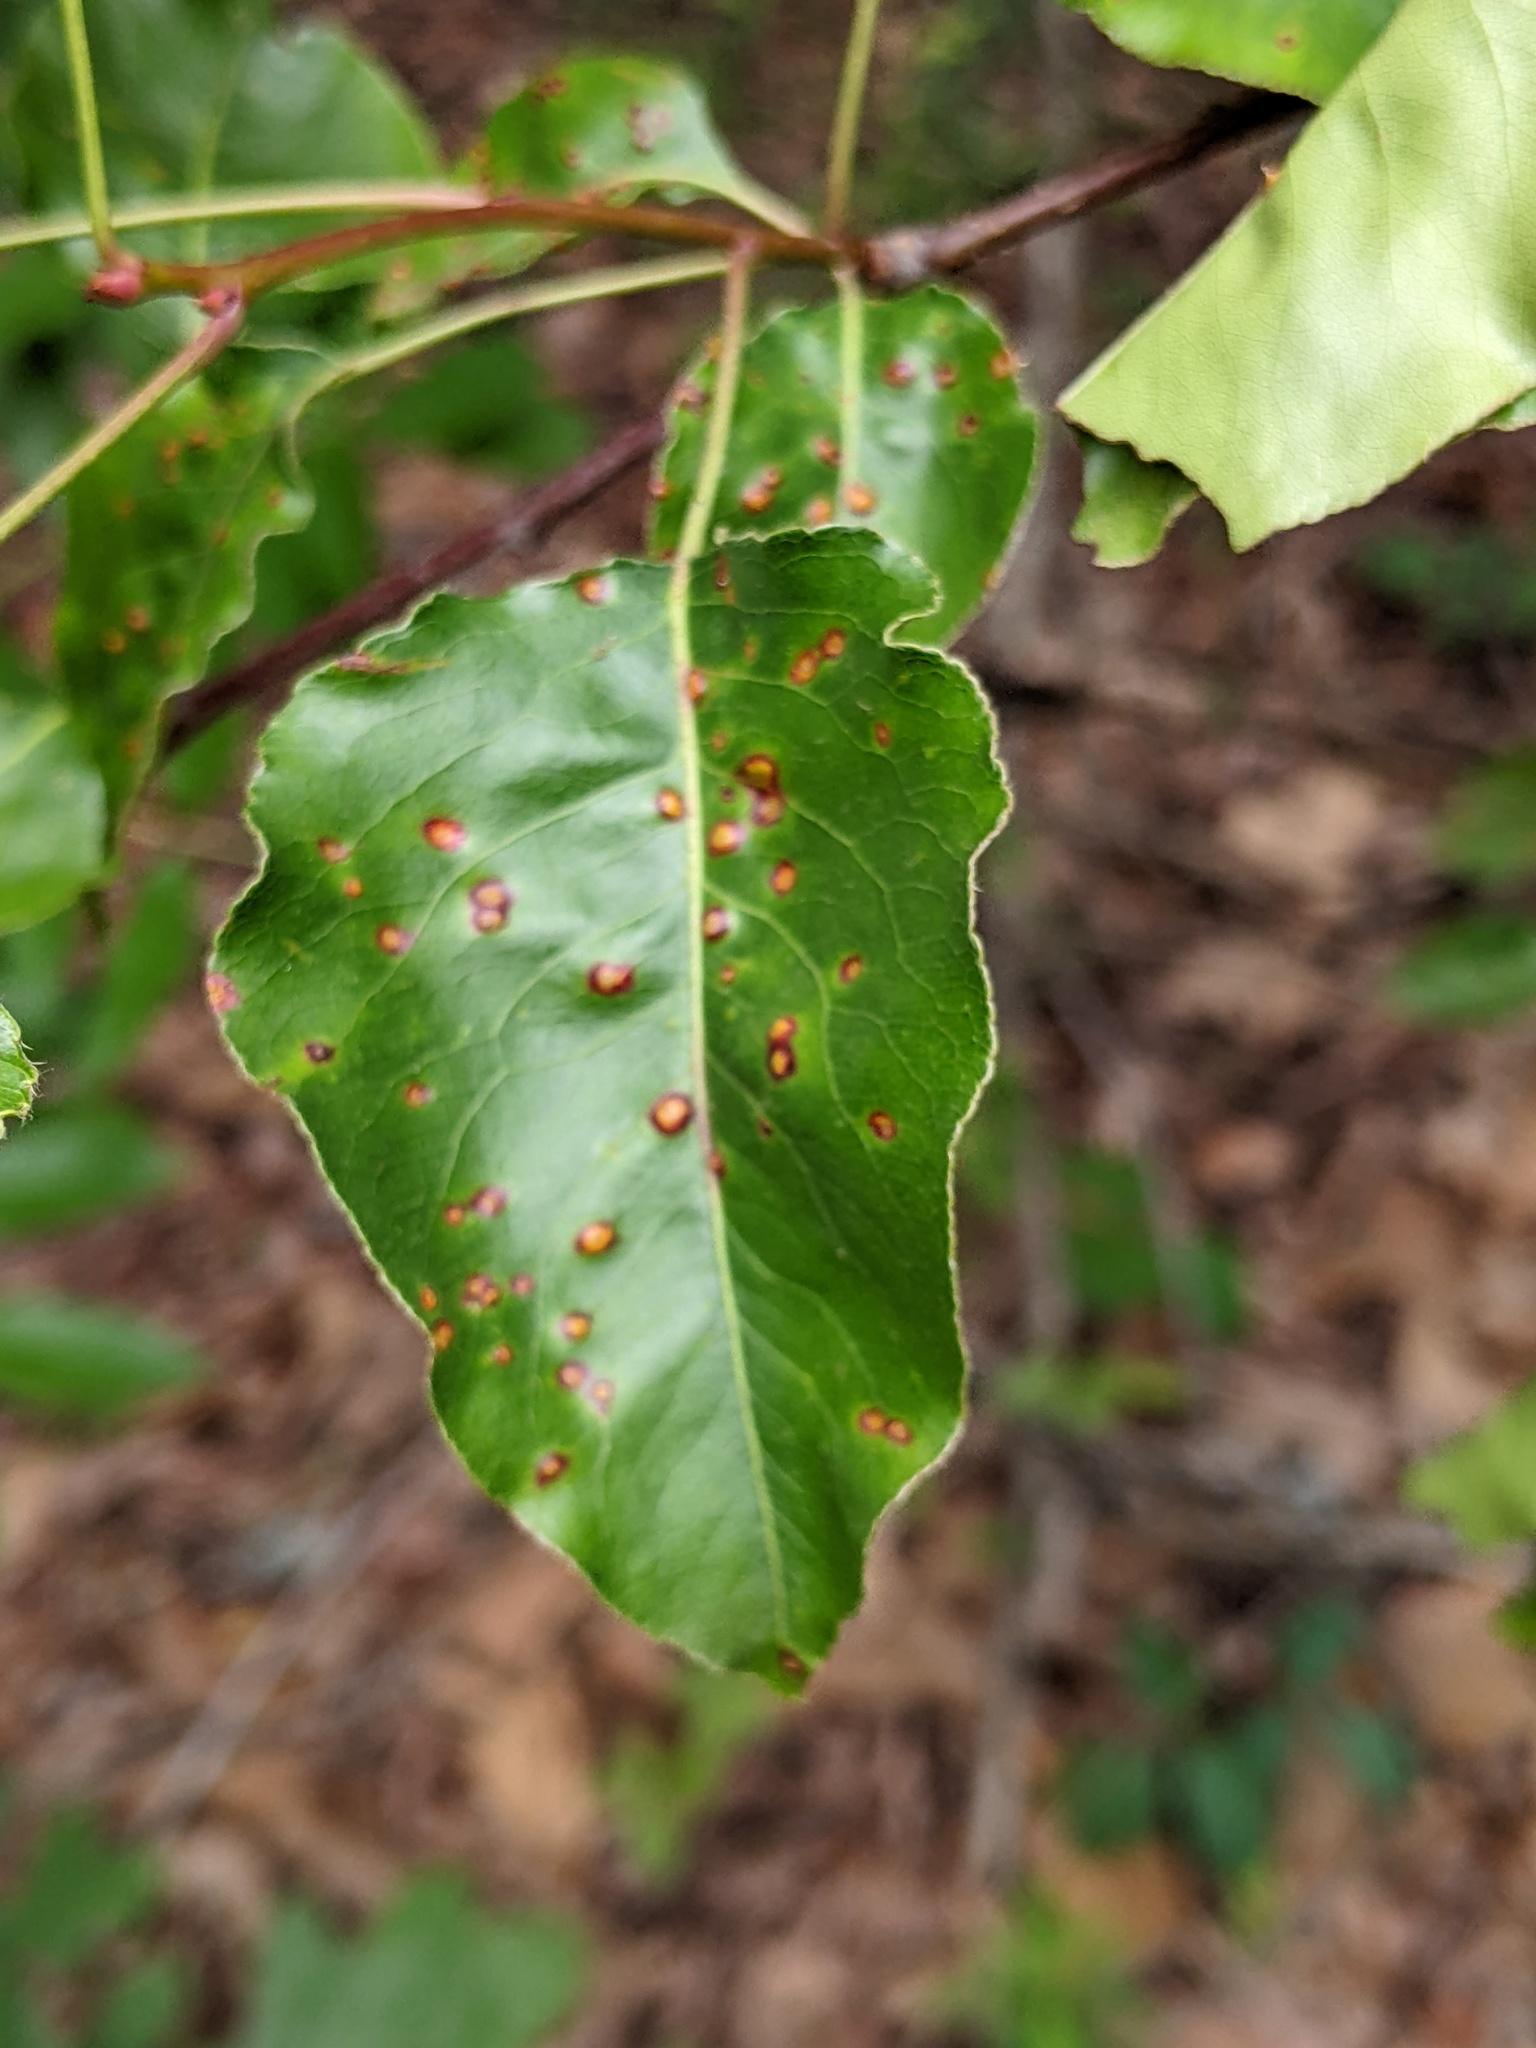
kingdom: Fungi
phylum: Basidiomycota
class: Pucciniomycetes
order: Pucciniales
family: Gymnosporangiaceae
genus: Gymnosporangium
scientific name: Gymnosporangium clavipes
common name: Quince rust
